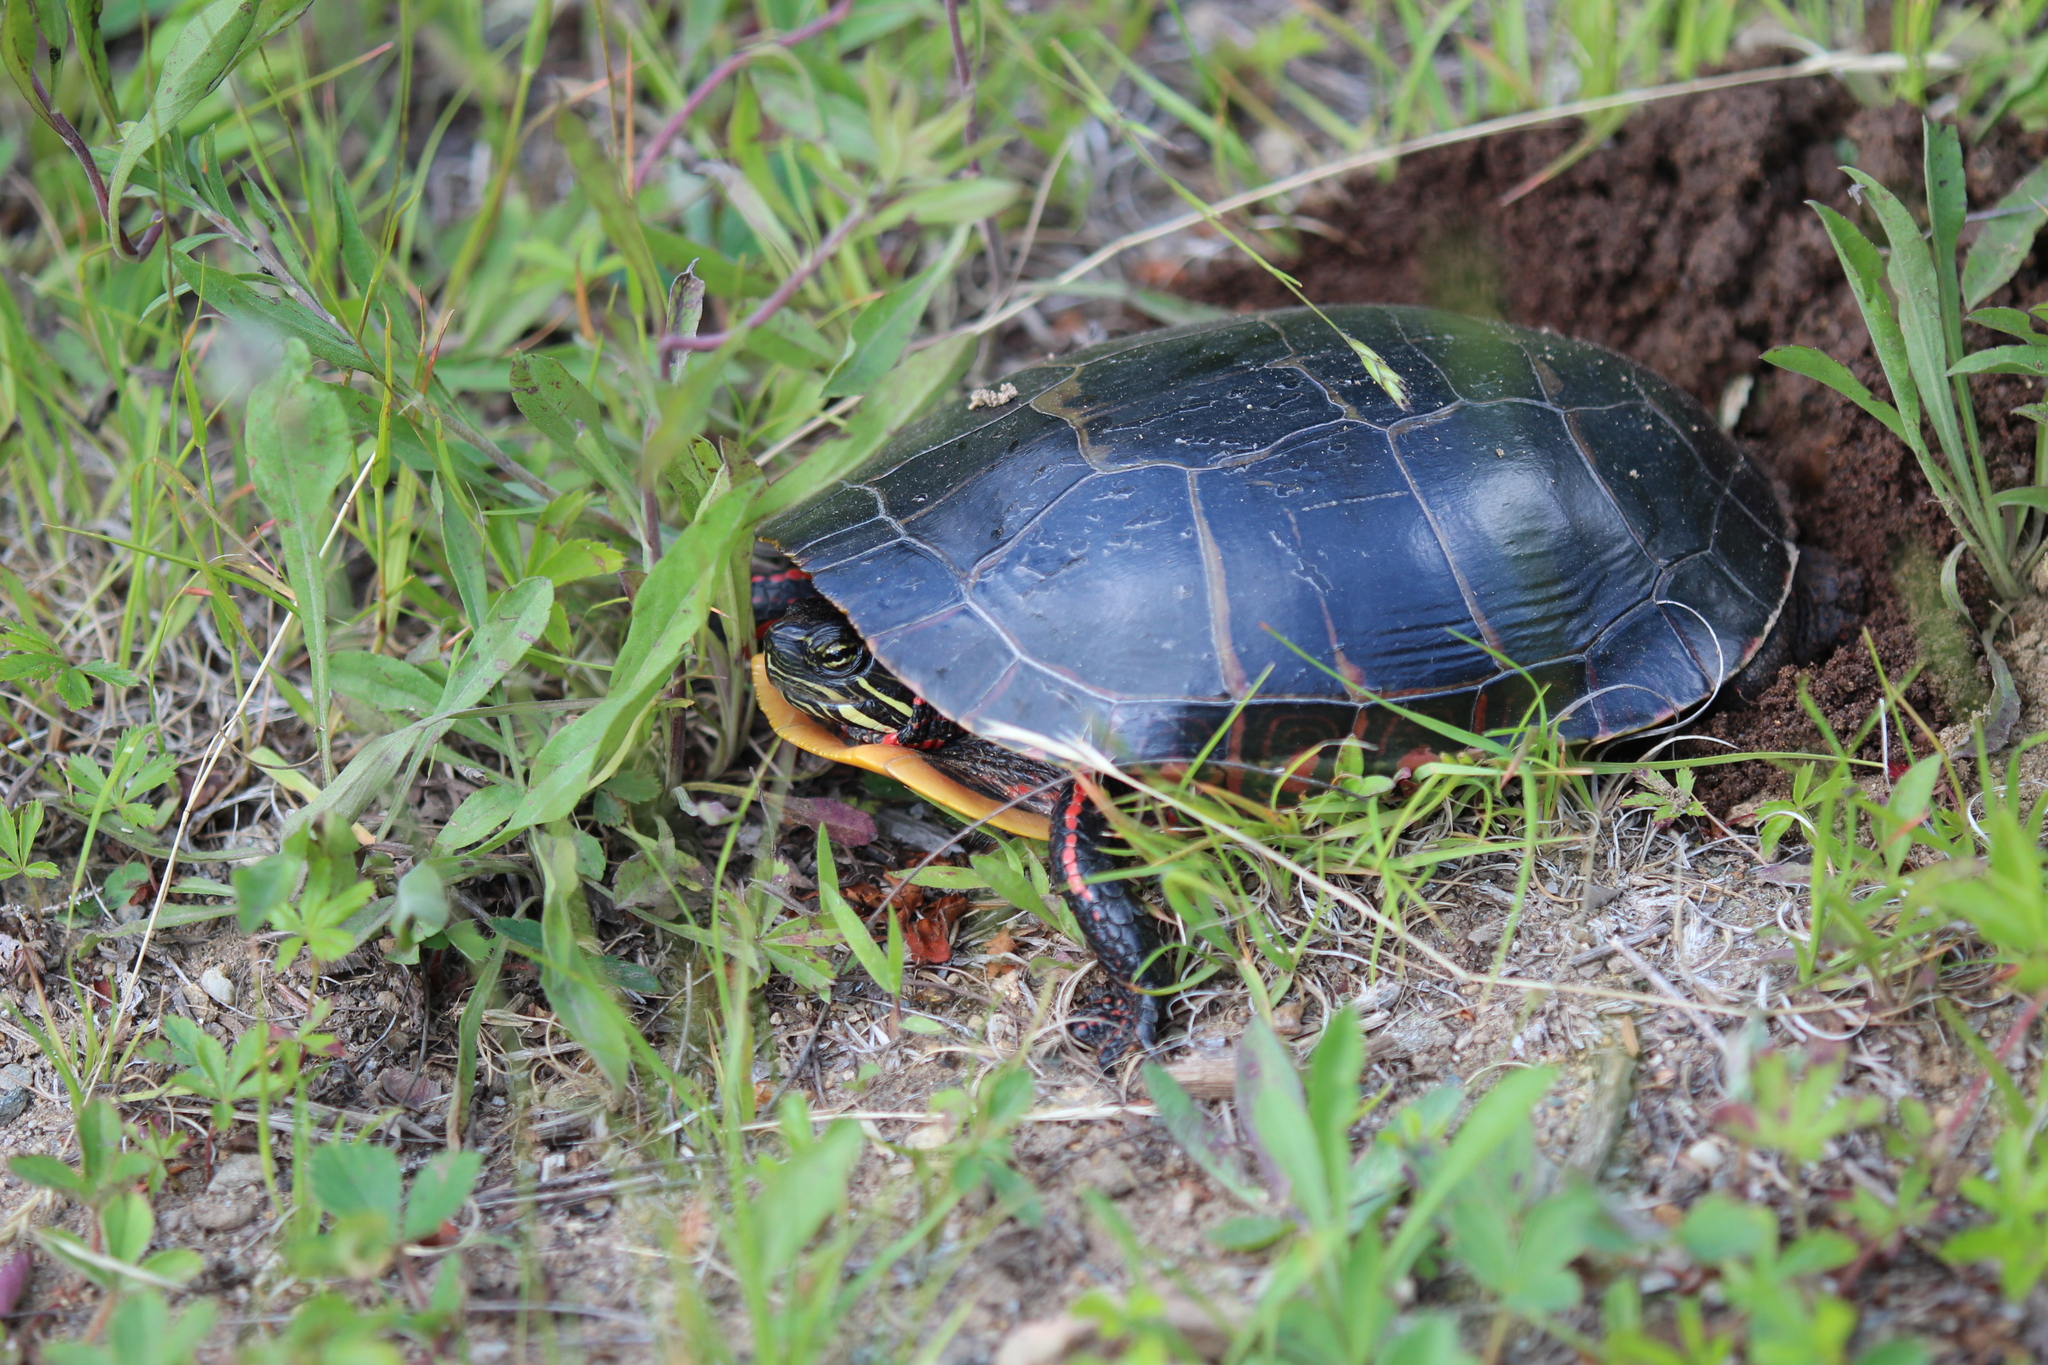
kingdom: Animalia
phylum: Chordata
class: Testudines
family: Emydidae
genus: Chrysemys
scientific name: Chrysemys picta
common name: Painted turtle
